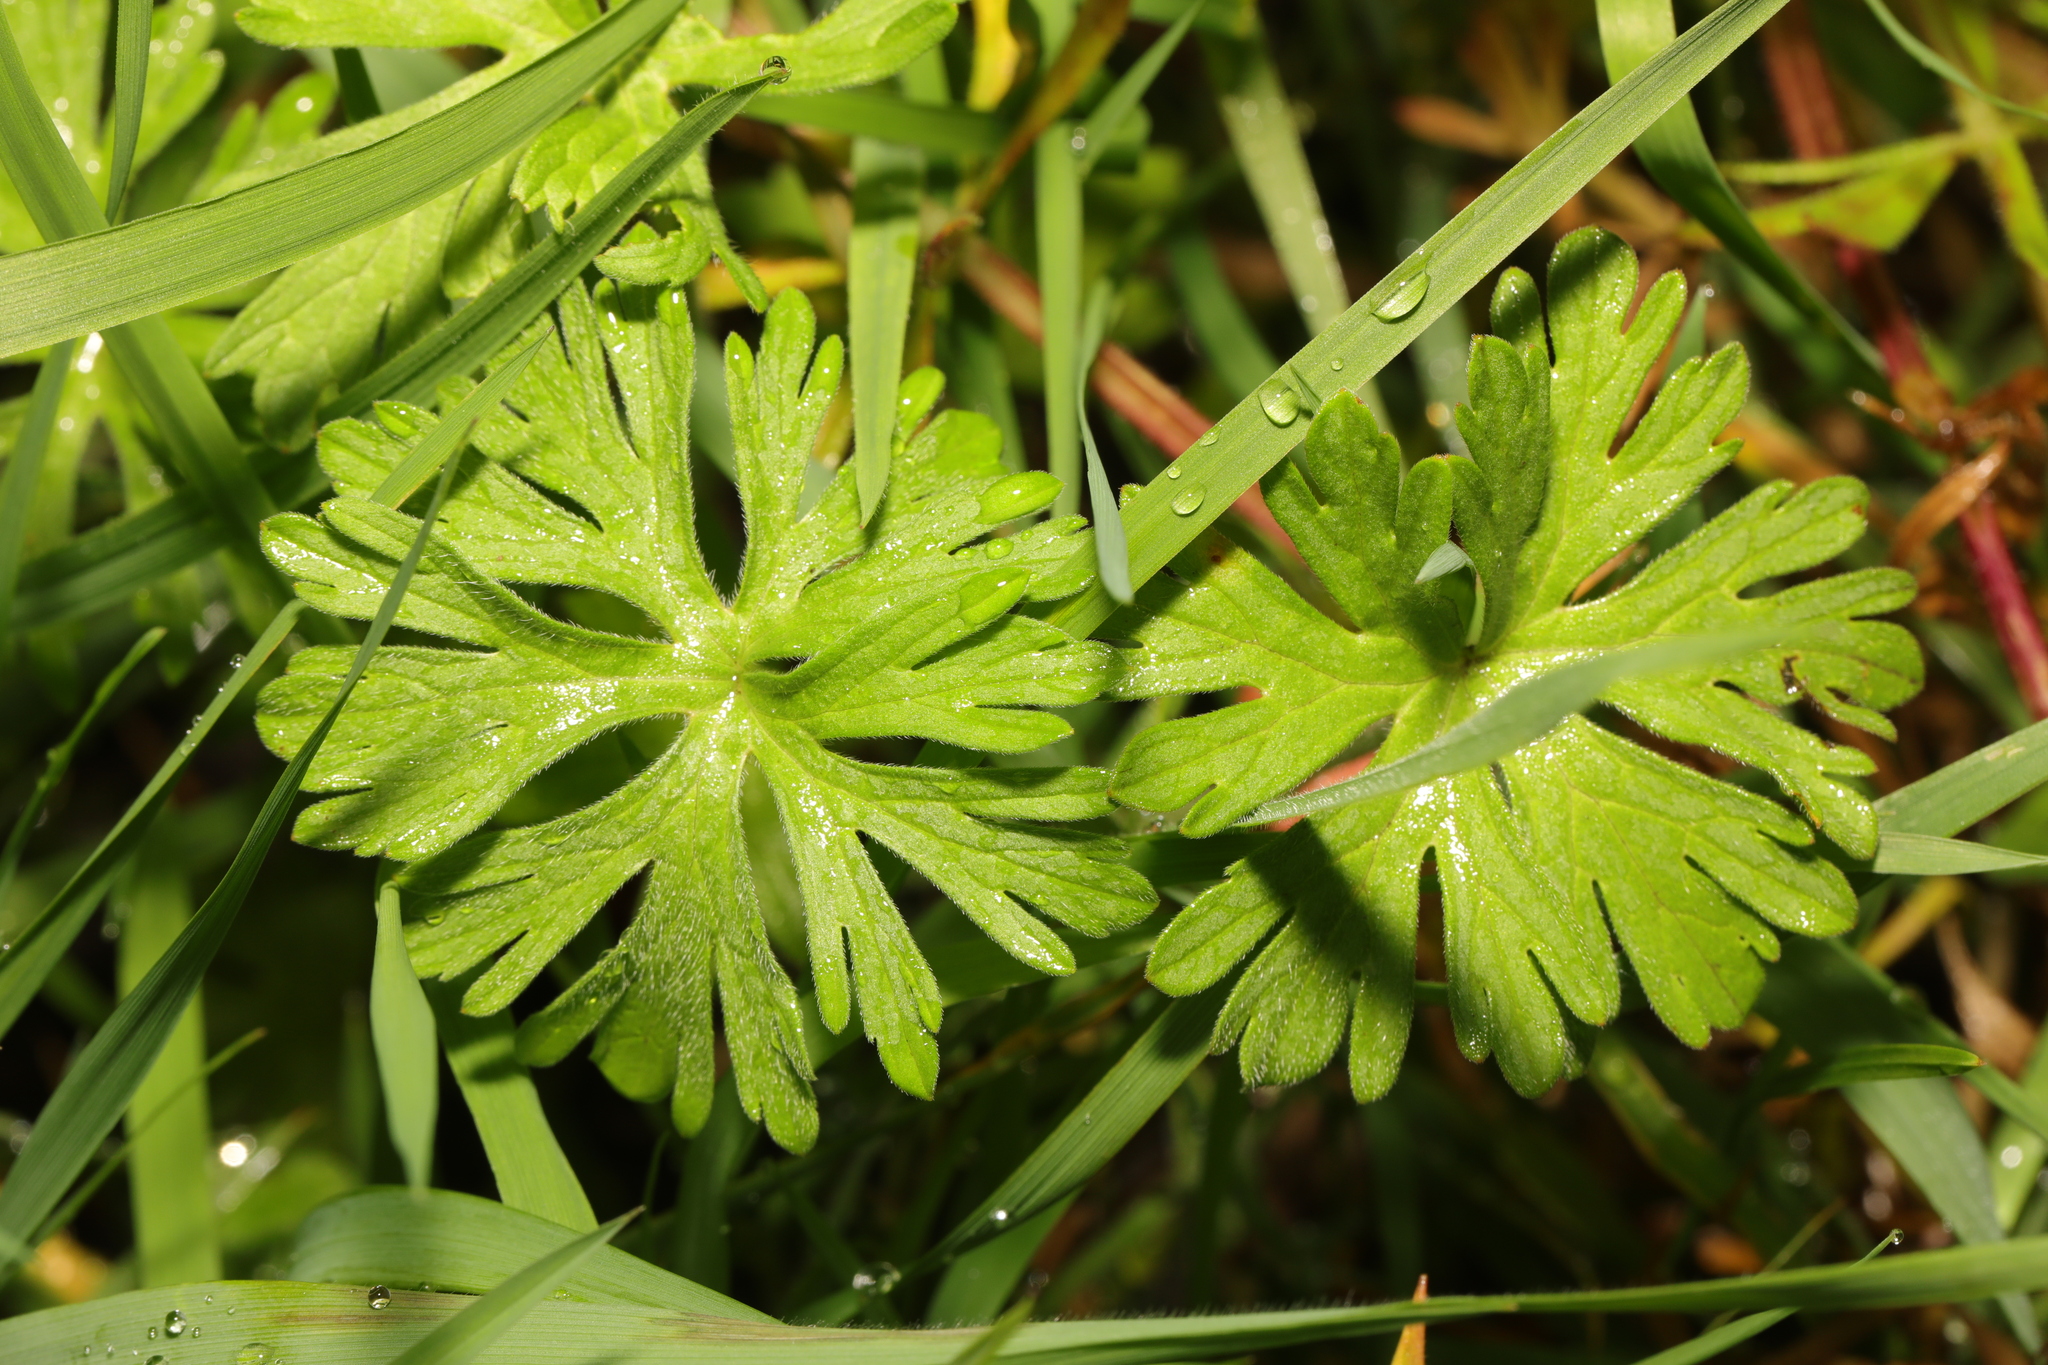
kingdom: Plantae
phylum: Tracheophyta
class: Magnoliopsida
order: Geraniales
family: Geraniaceae
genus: Geranium
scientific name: Geranium dissectum
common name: Cut-leaved crane's-bill
